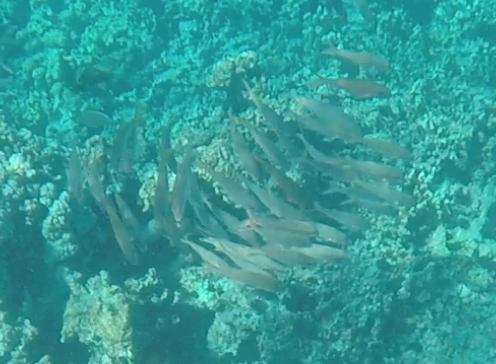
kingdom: Animalia
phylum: Chordata
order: Perciformes
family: Mullidae
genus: Mulloidichthys
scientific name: Mulloidichthys vanicolensis
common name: Yellowfin goatfish
